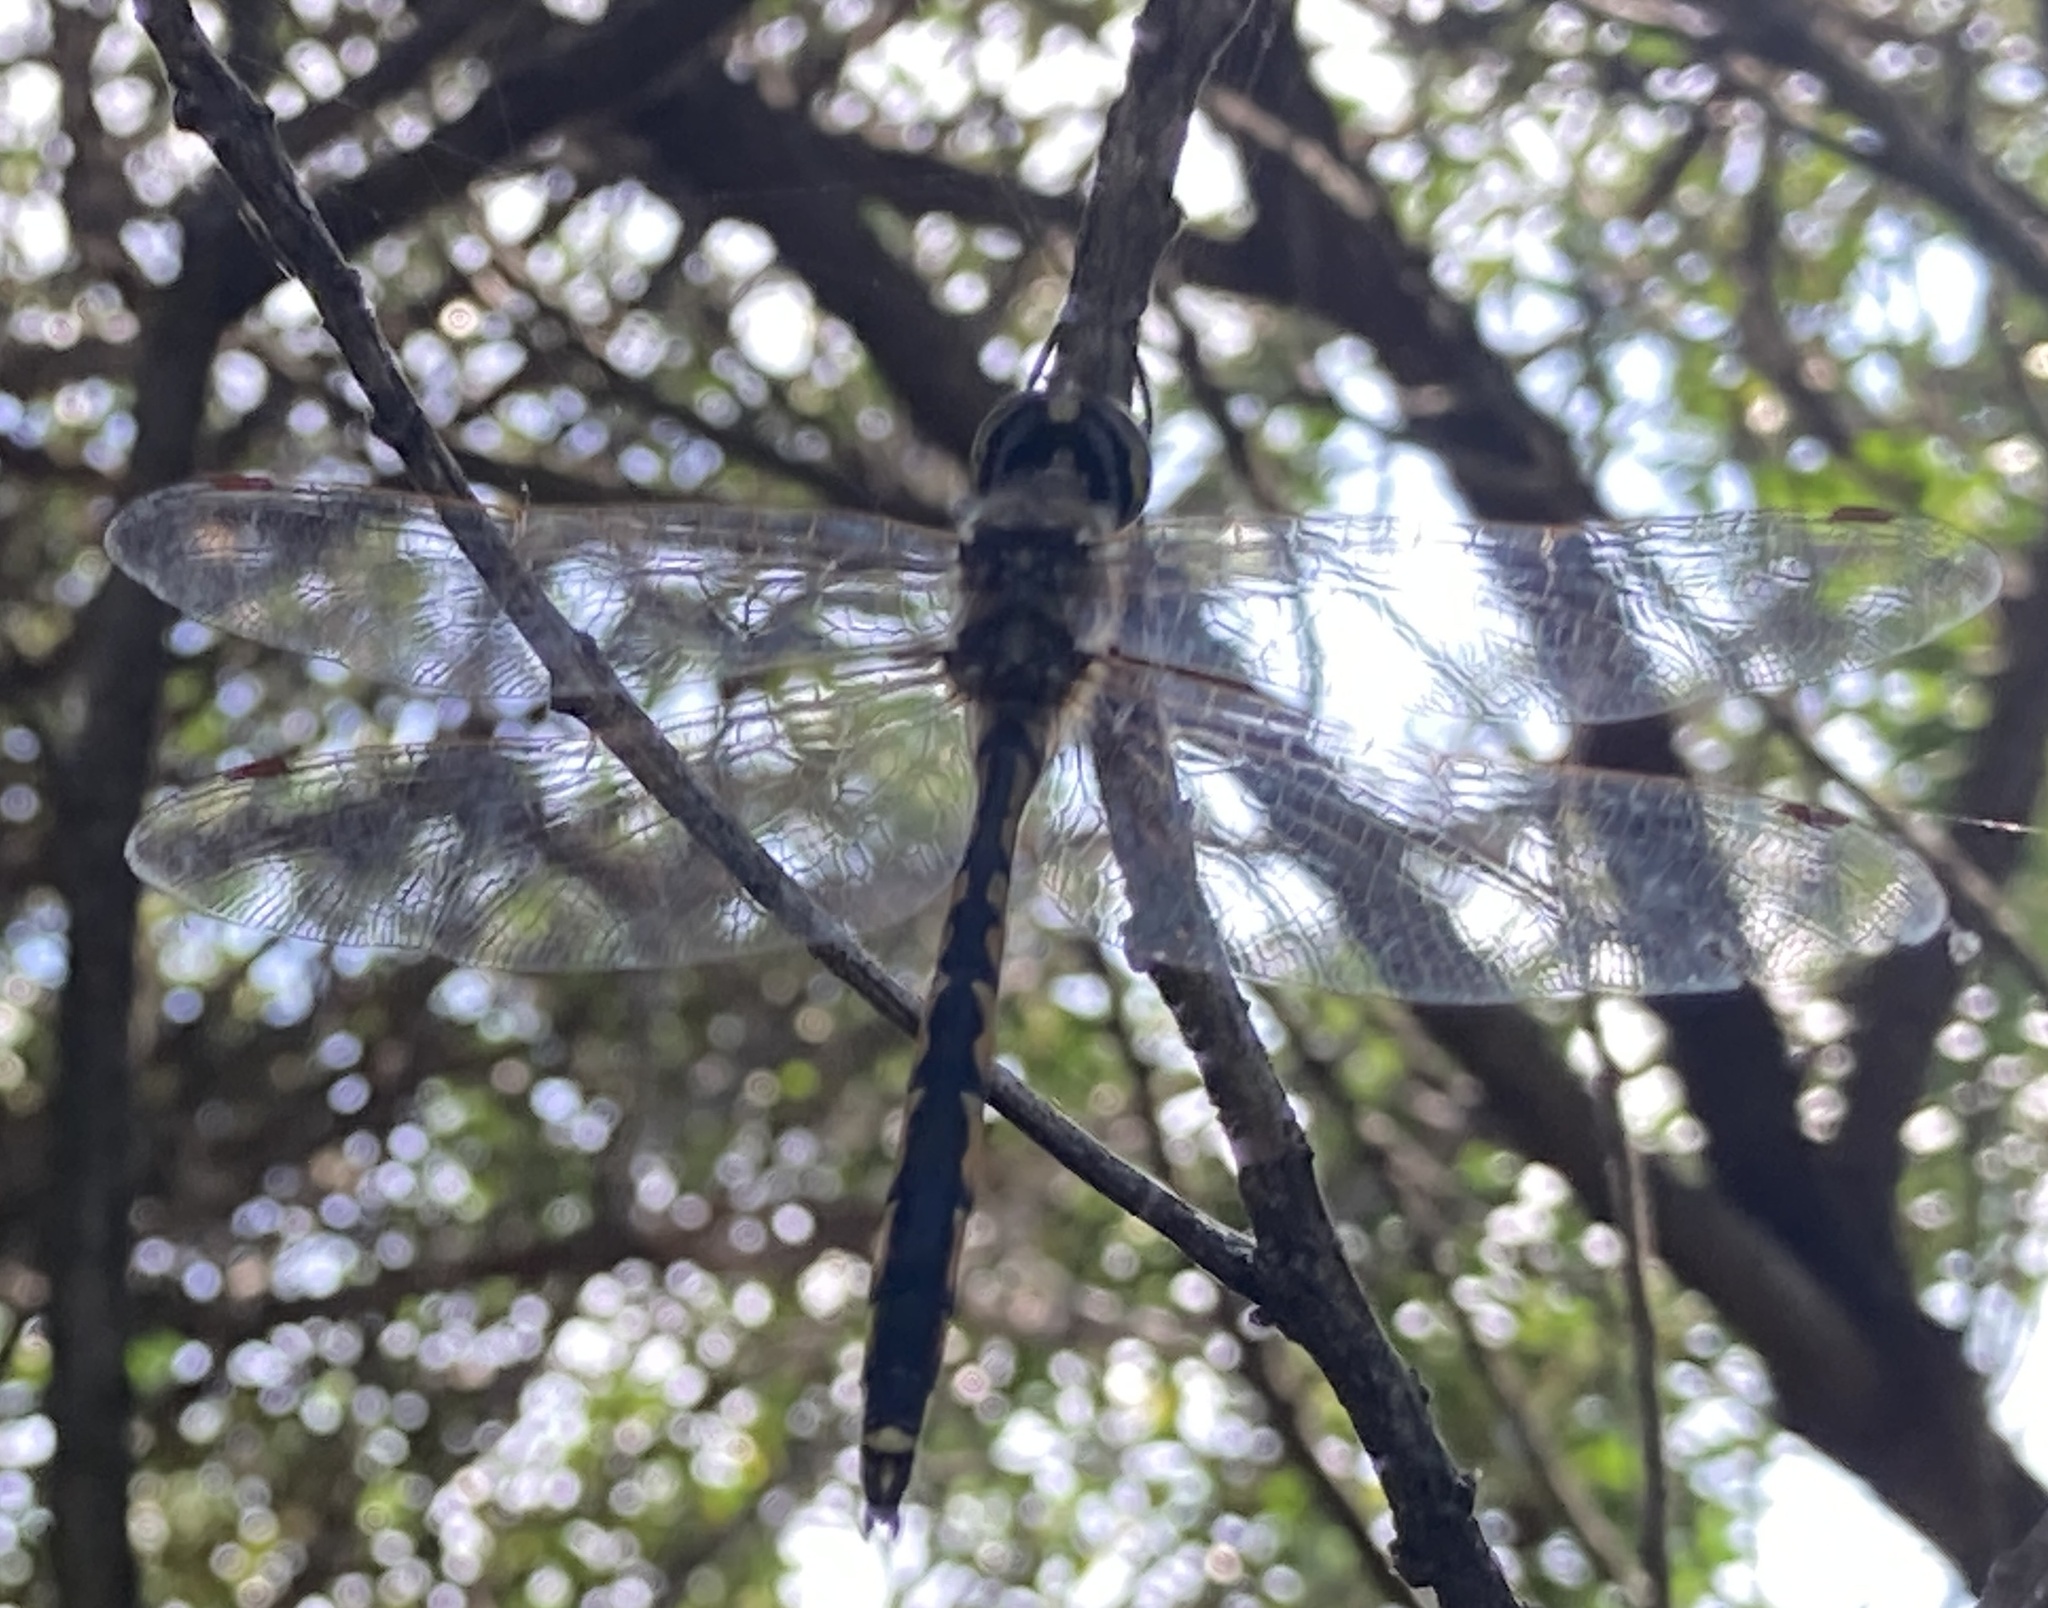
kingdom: Animalia
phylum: Arthropoda
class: Insecta
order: Odonata
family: Corduliidae
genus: Hemicordulia
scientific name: Hemicordulia tau
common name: Tau emerald
